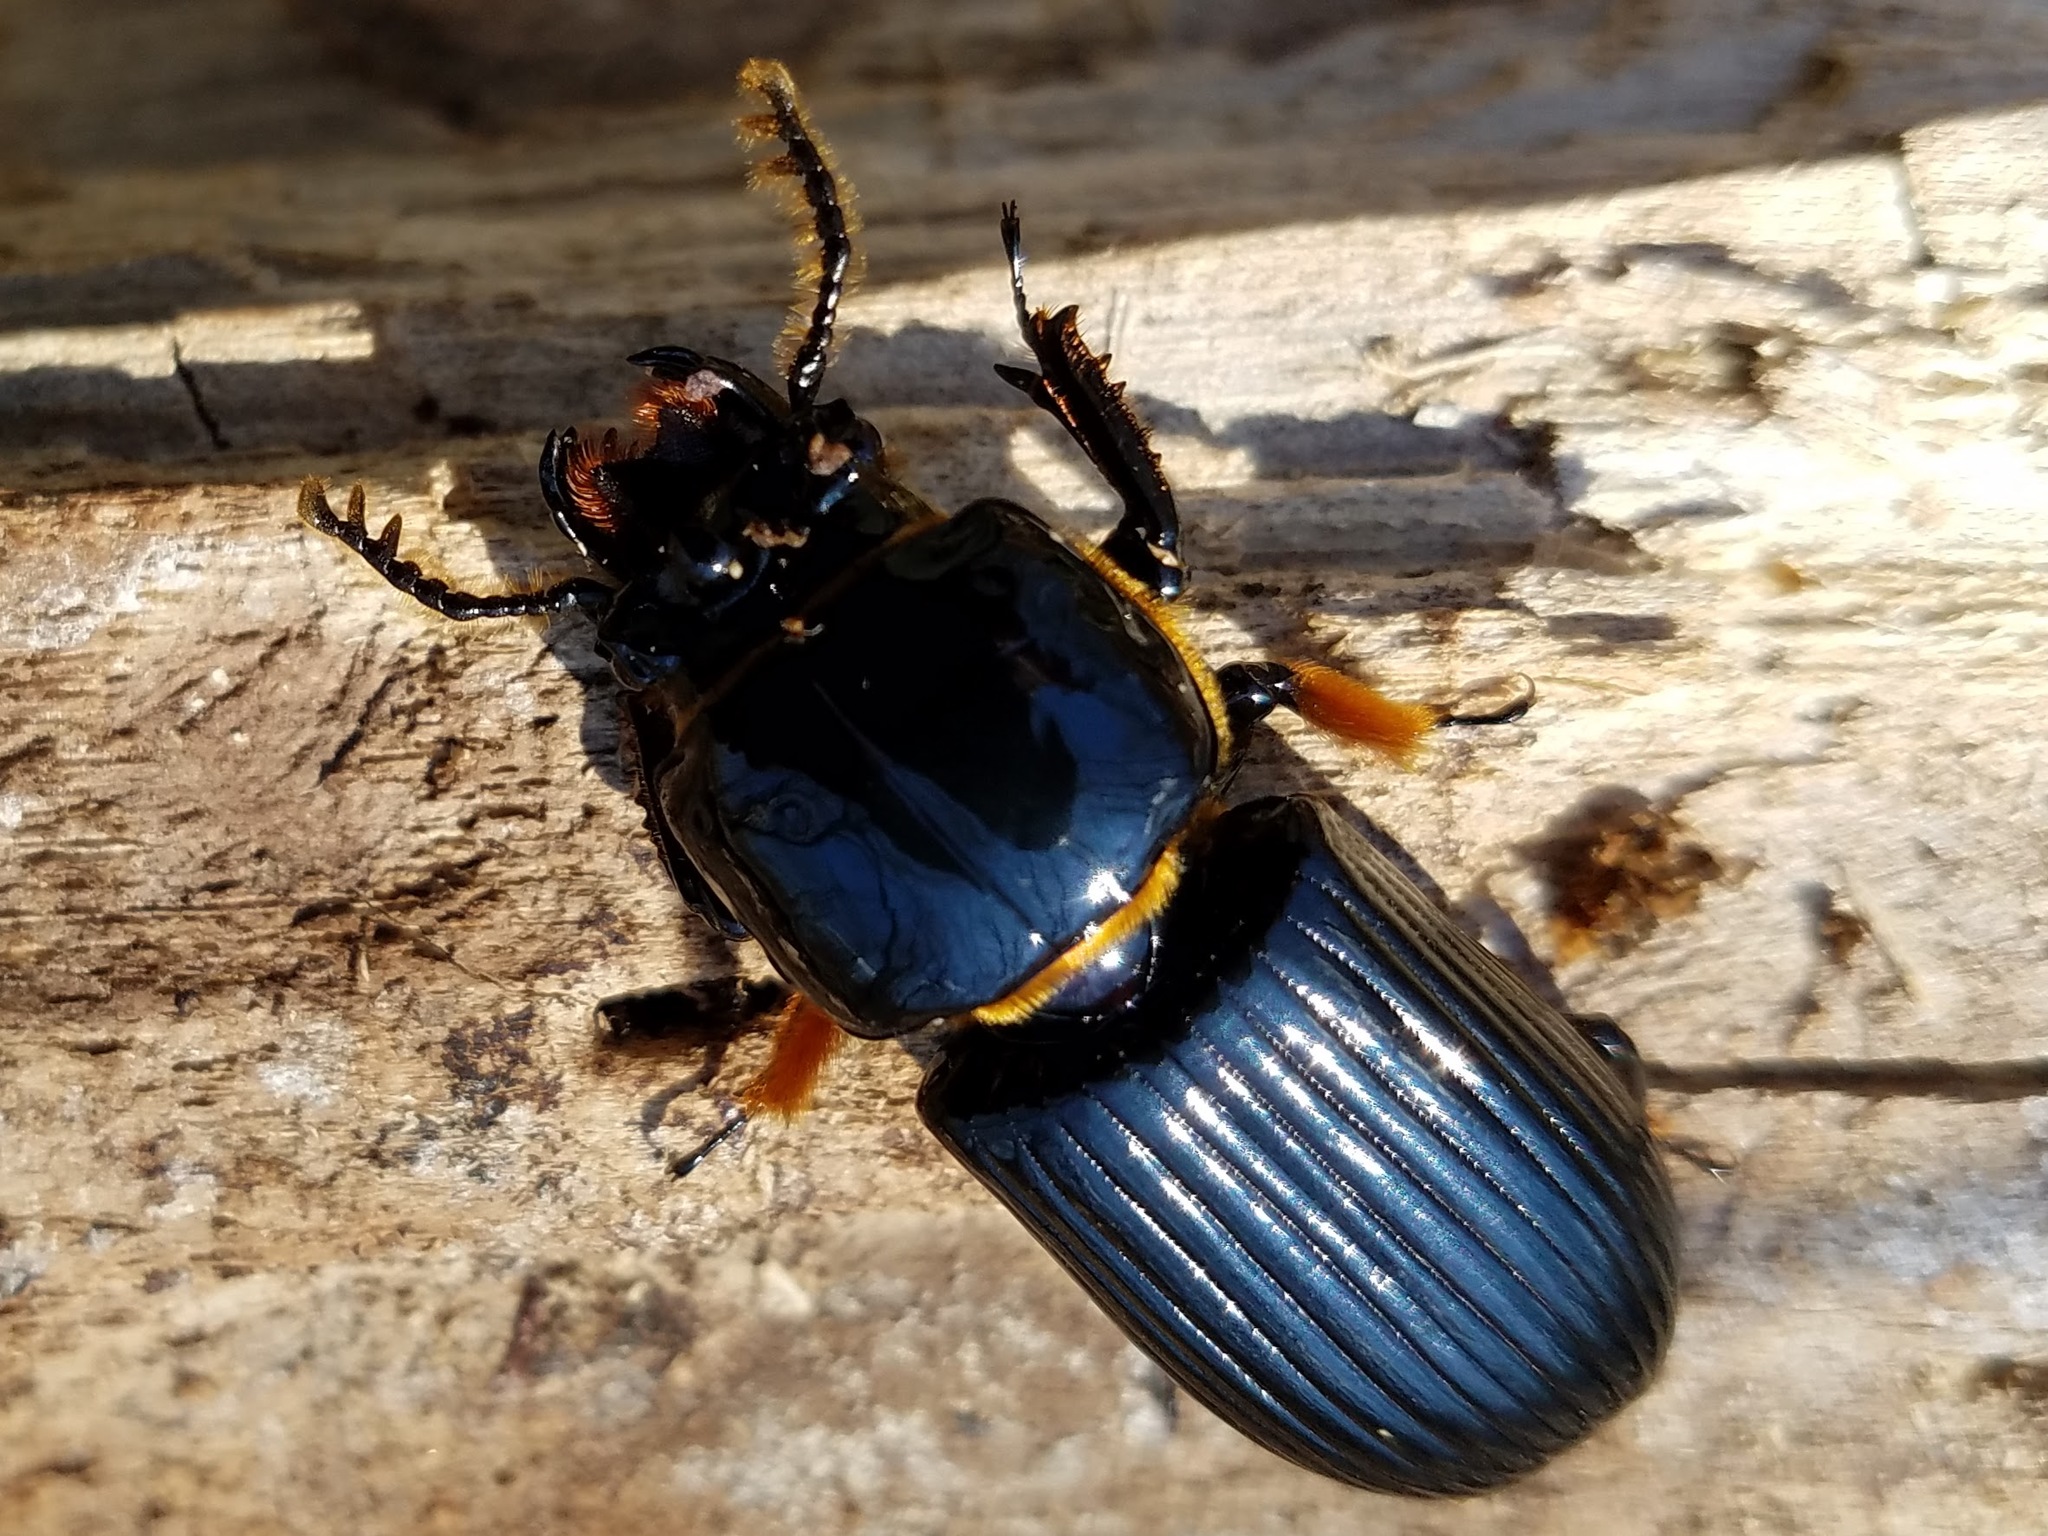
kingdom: Animalia
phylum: Arthropoda
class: Insecta
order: Coleoptera
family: Passalidae
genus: Odontotaenius
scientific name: Odontotaenius disjunctus
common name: Patent leather beetle
